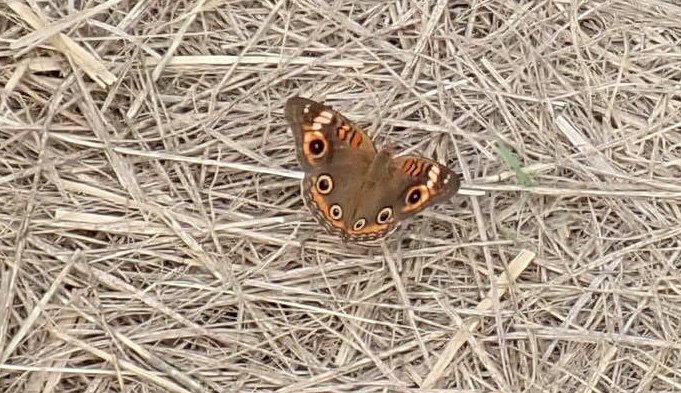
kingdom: Animalia
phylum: Arthropoda
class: Insecta
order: Lepidoptera
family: Nymphalidae
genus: Junonia
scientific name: Junonia coenia
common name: Common buckeye
